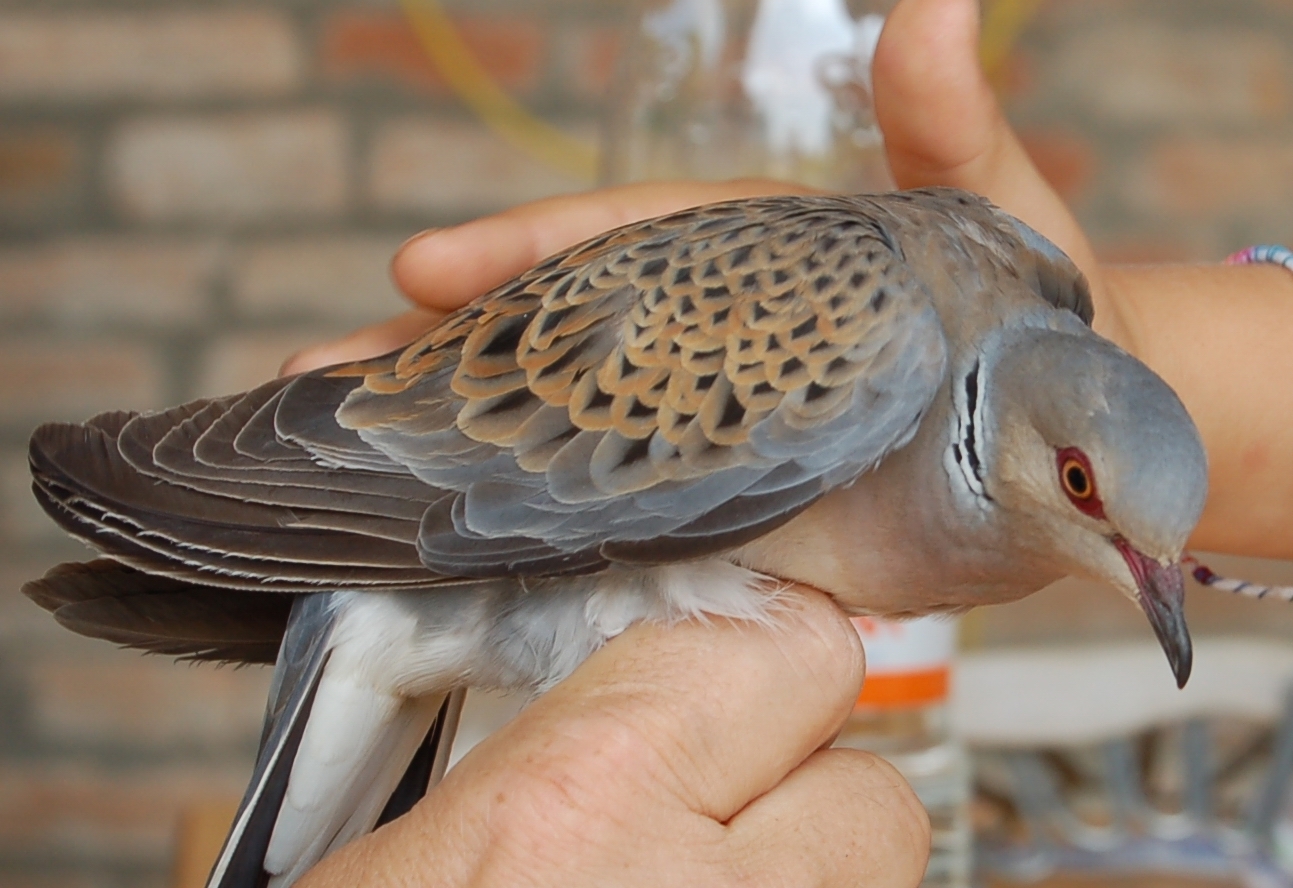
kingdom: Animalia
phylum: Chordata
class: Aves
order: Columbiformes
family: Columbidae
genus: Streptopelia
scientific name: Streptopelia turtur
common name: European turtle dove
